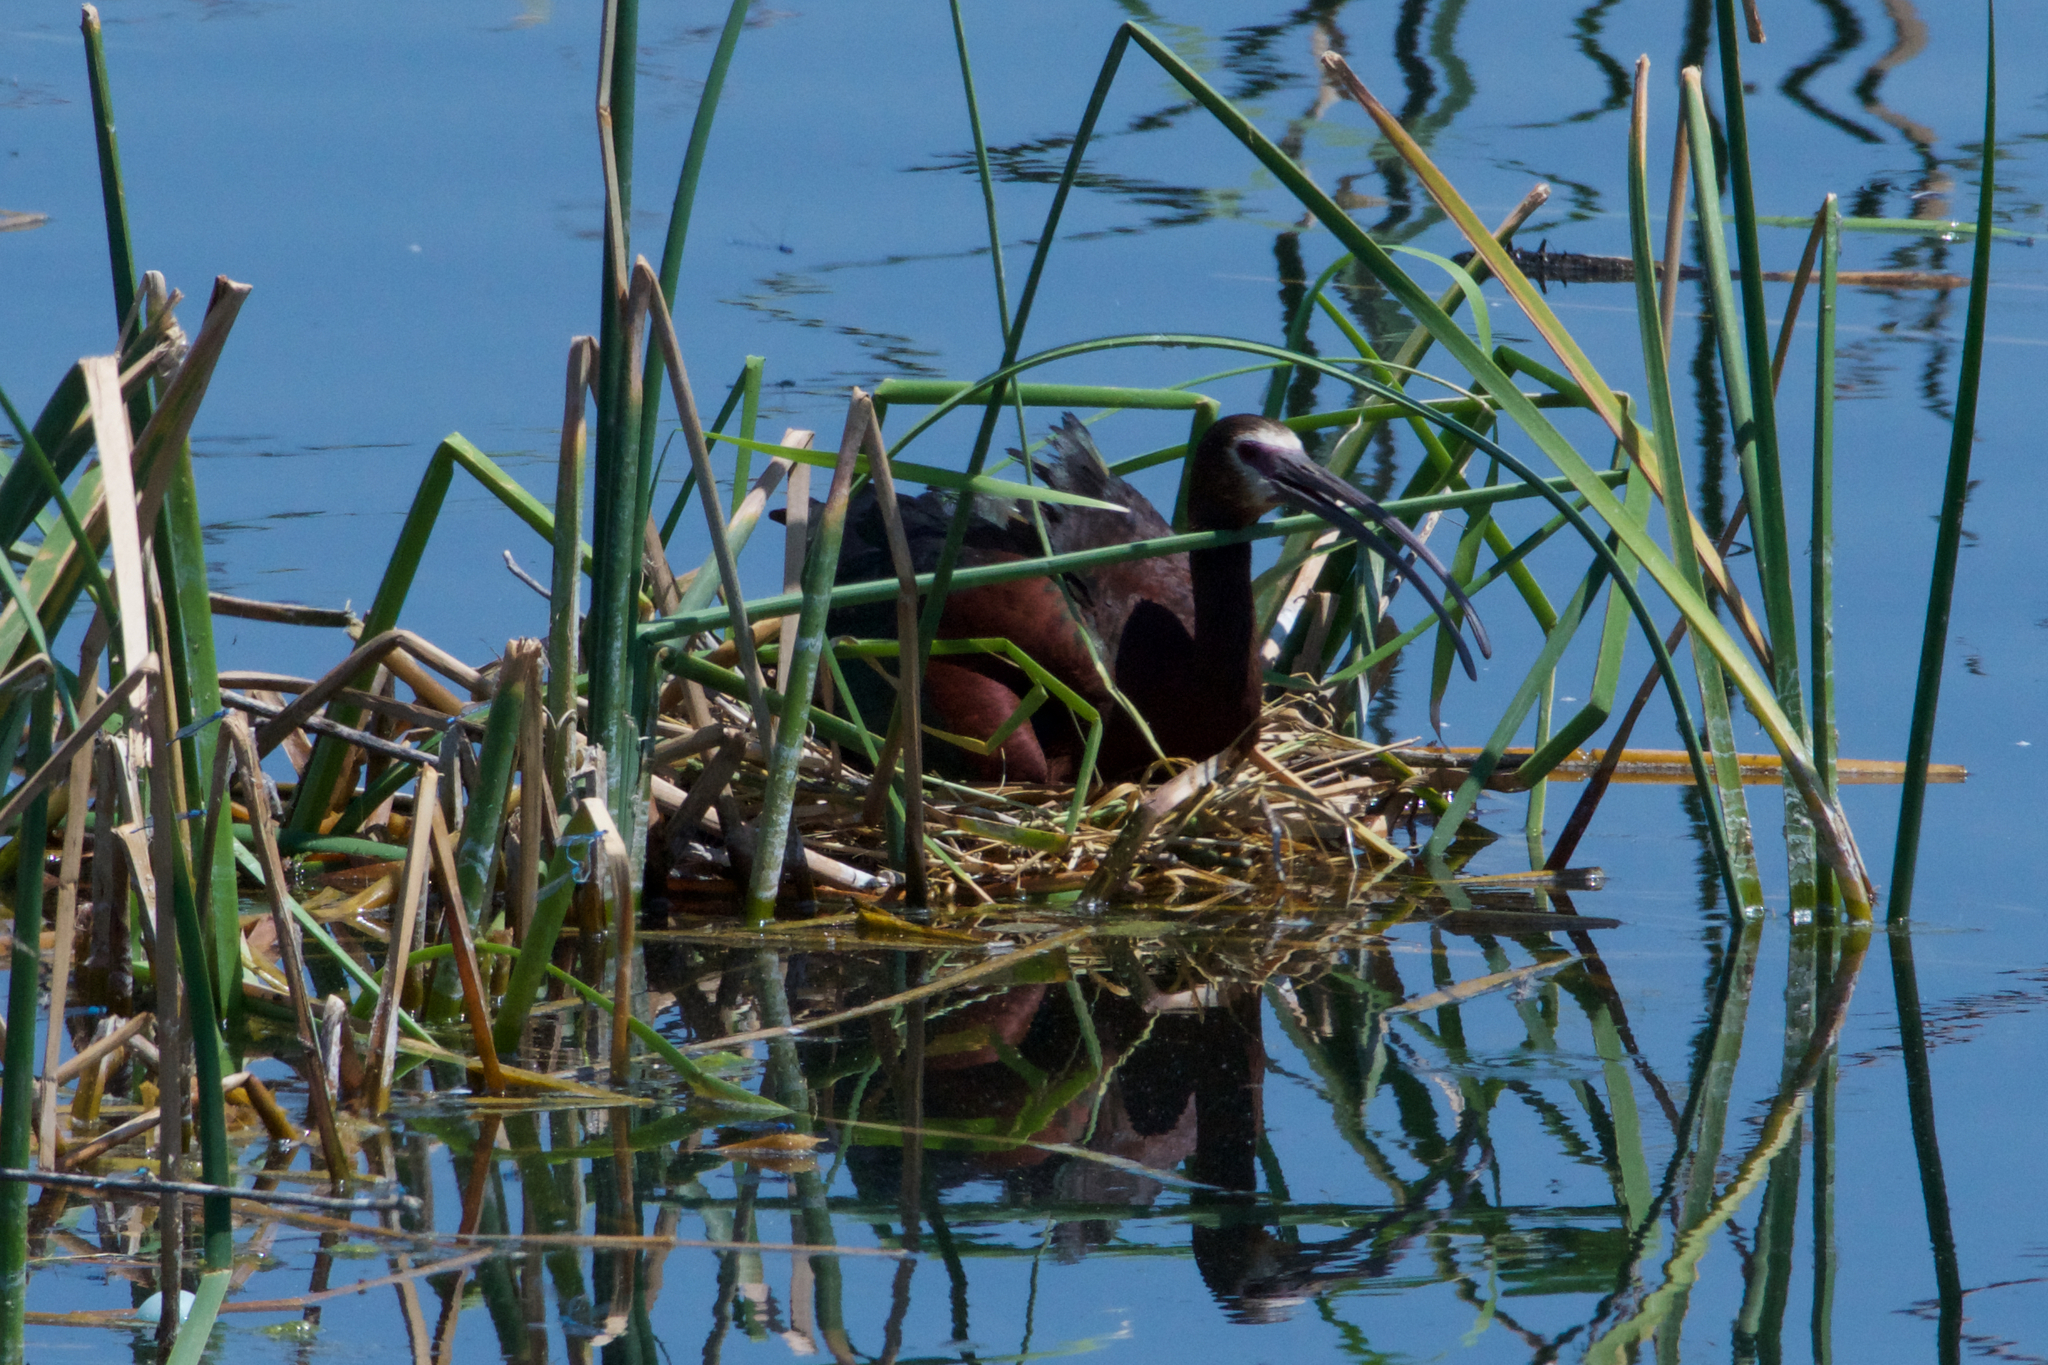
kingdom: Animalia
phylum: Chordata
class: Aves
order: Pelecaniformes
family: Threskiornithidae
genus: Plegadis
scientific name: Plegadis chihi
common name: White-faced ibis
